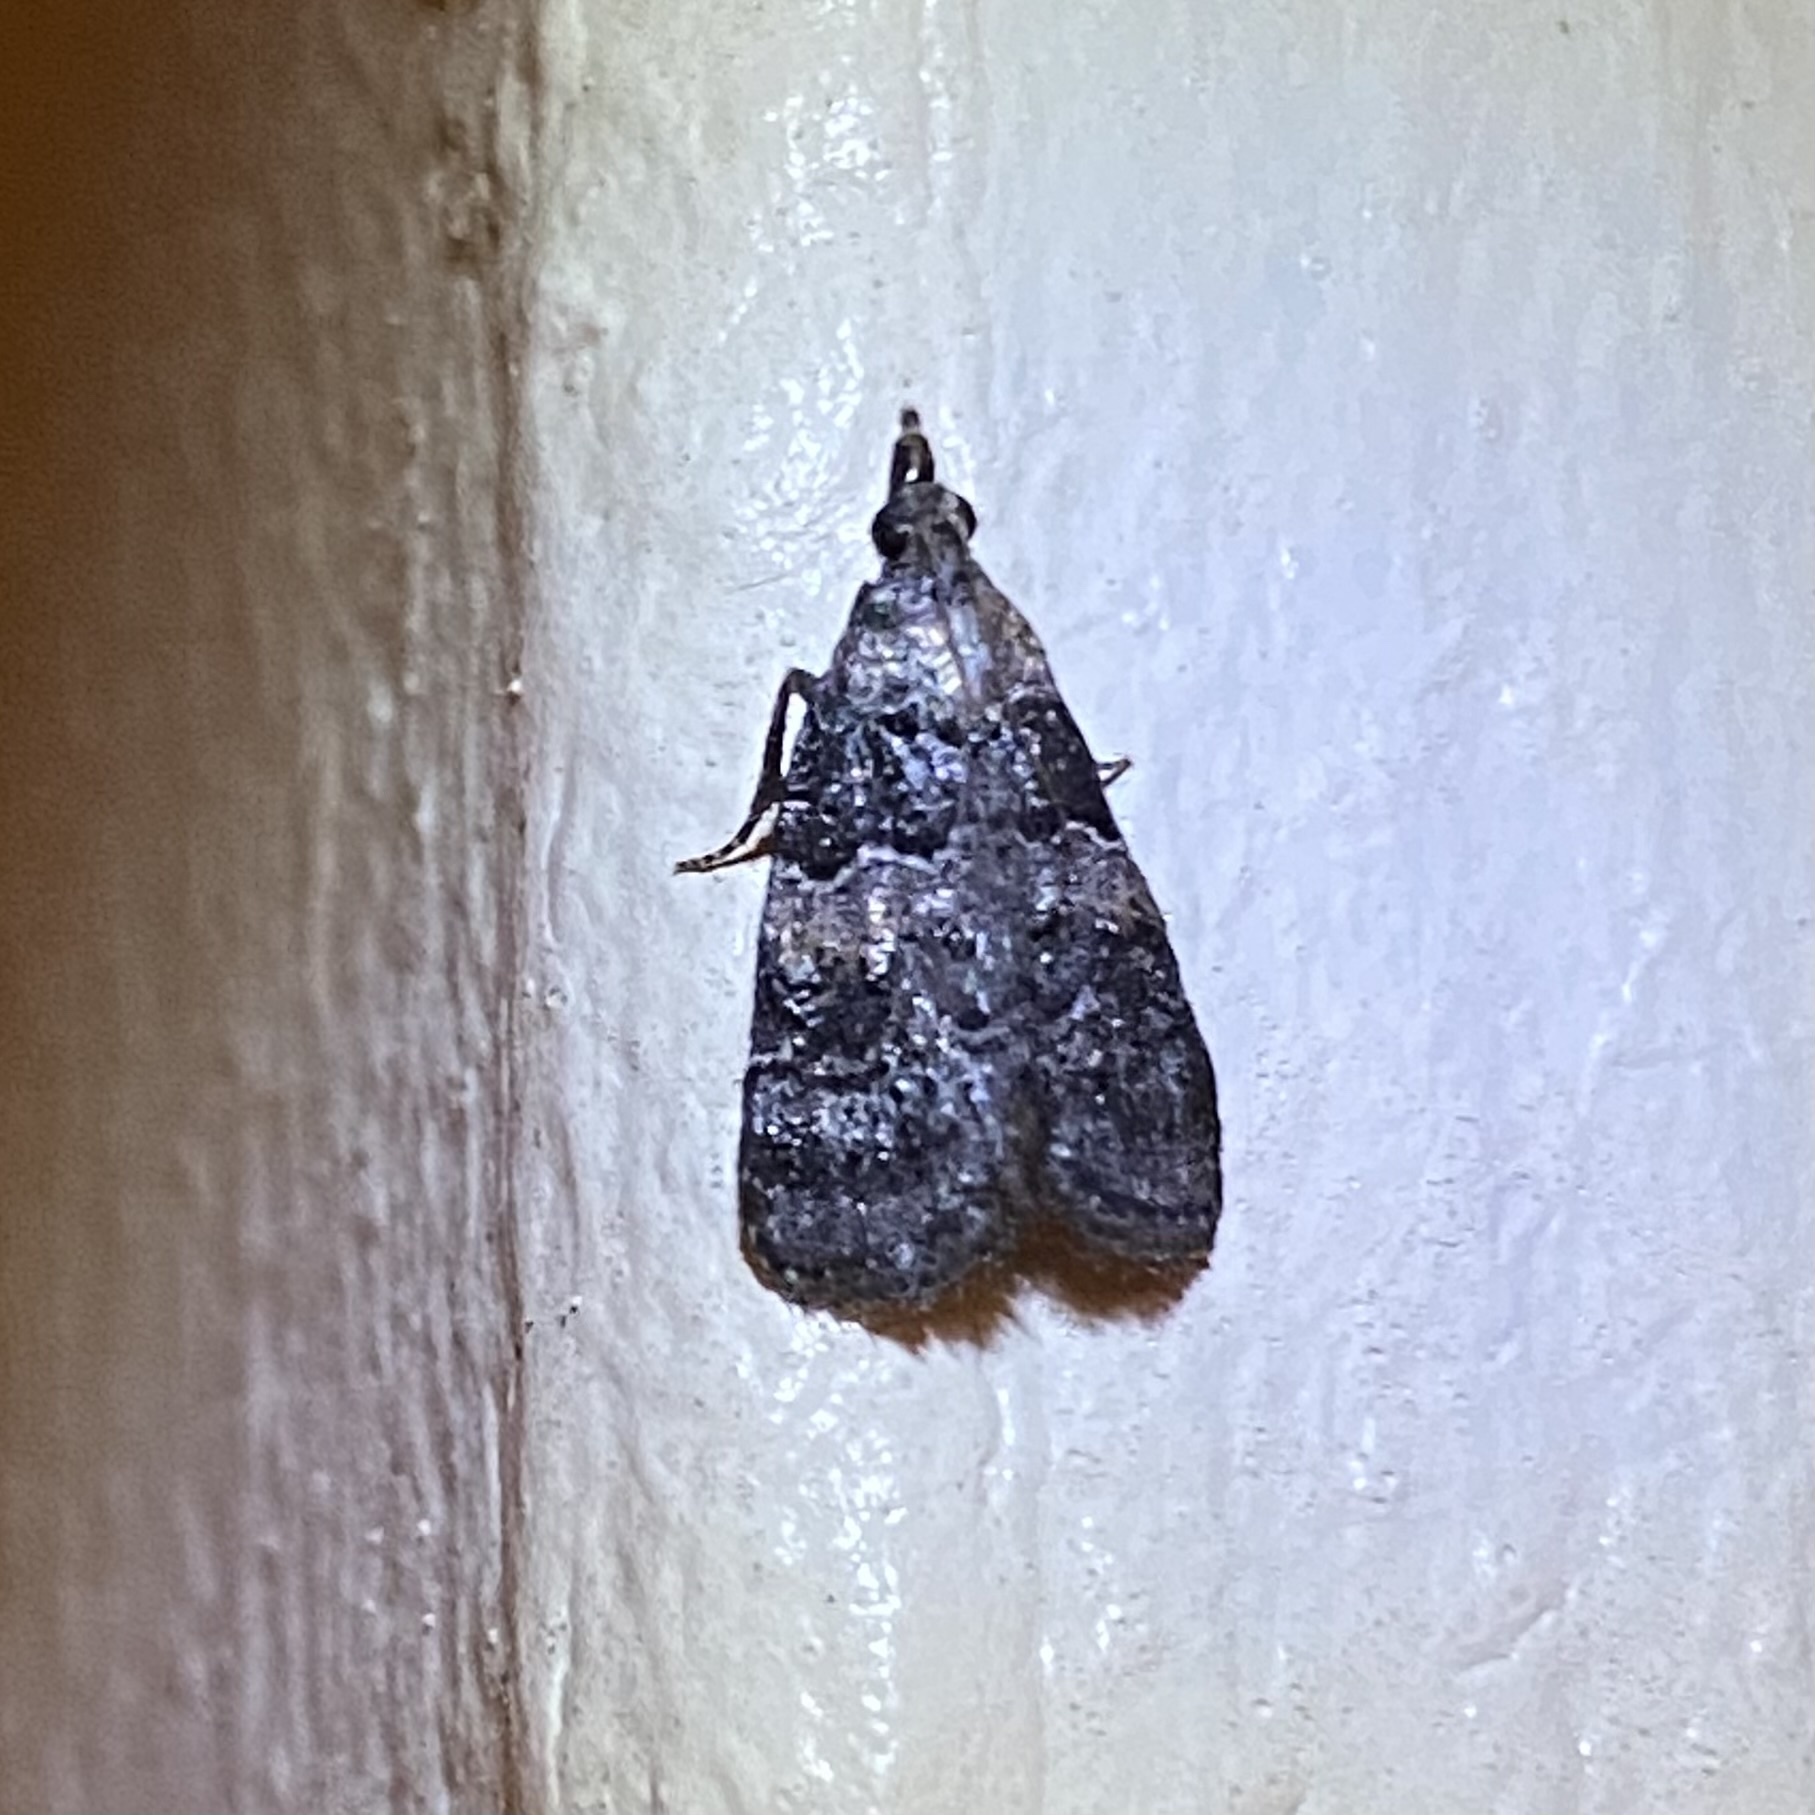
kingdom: Animalia
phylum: Arthropoda
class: Insecta
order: Lepidoptera
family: Pyralidae
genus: Satole
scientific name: Satole ligniperdalis
